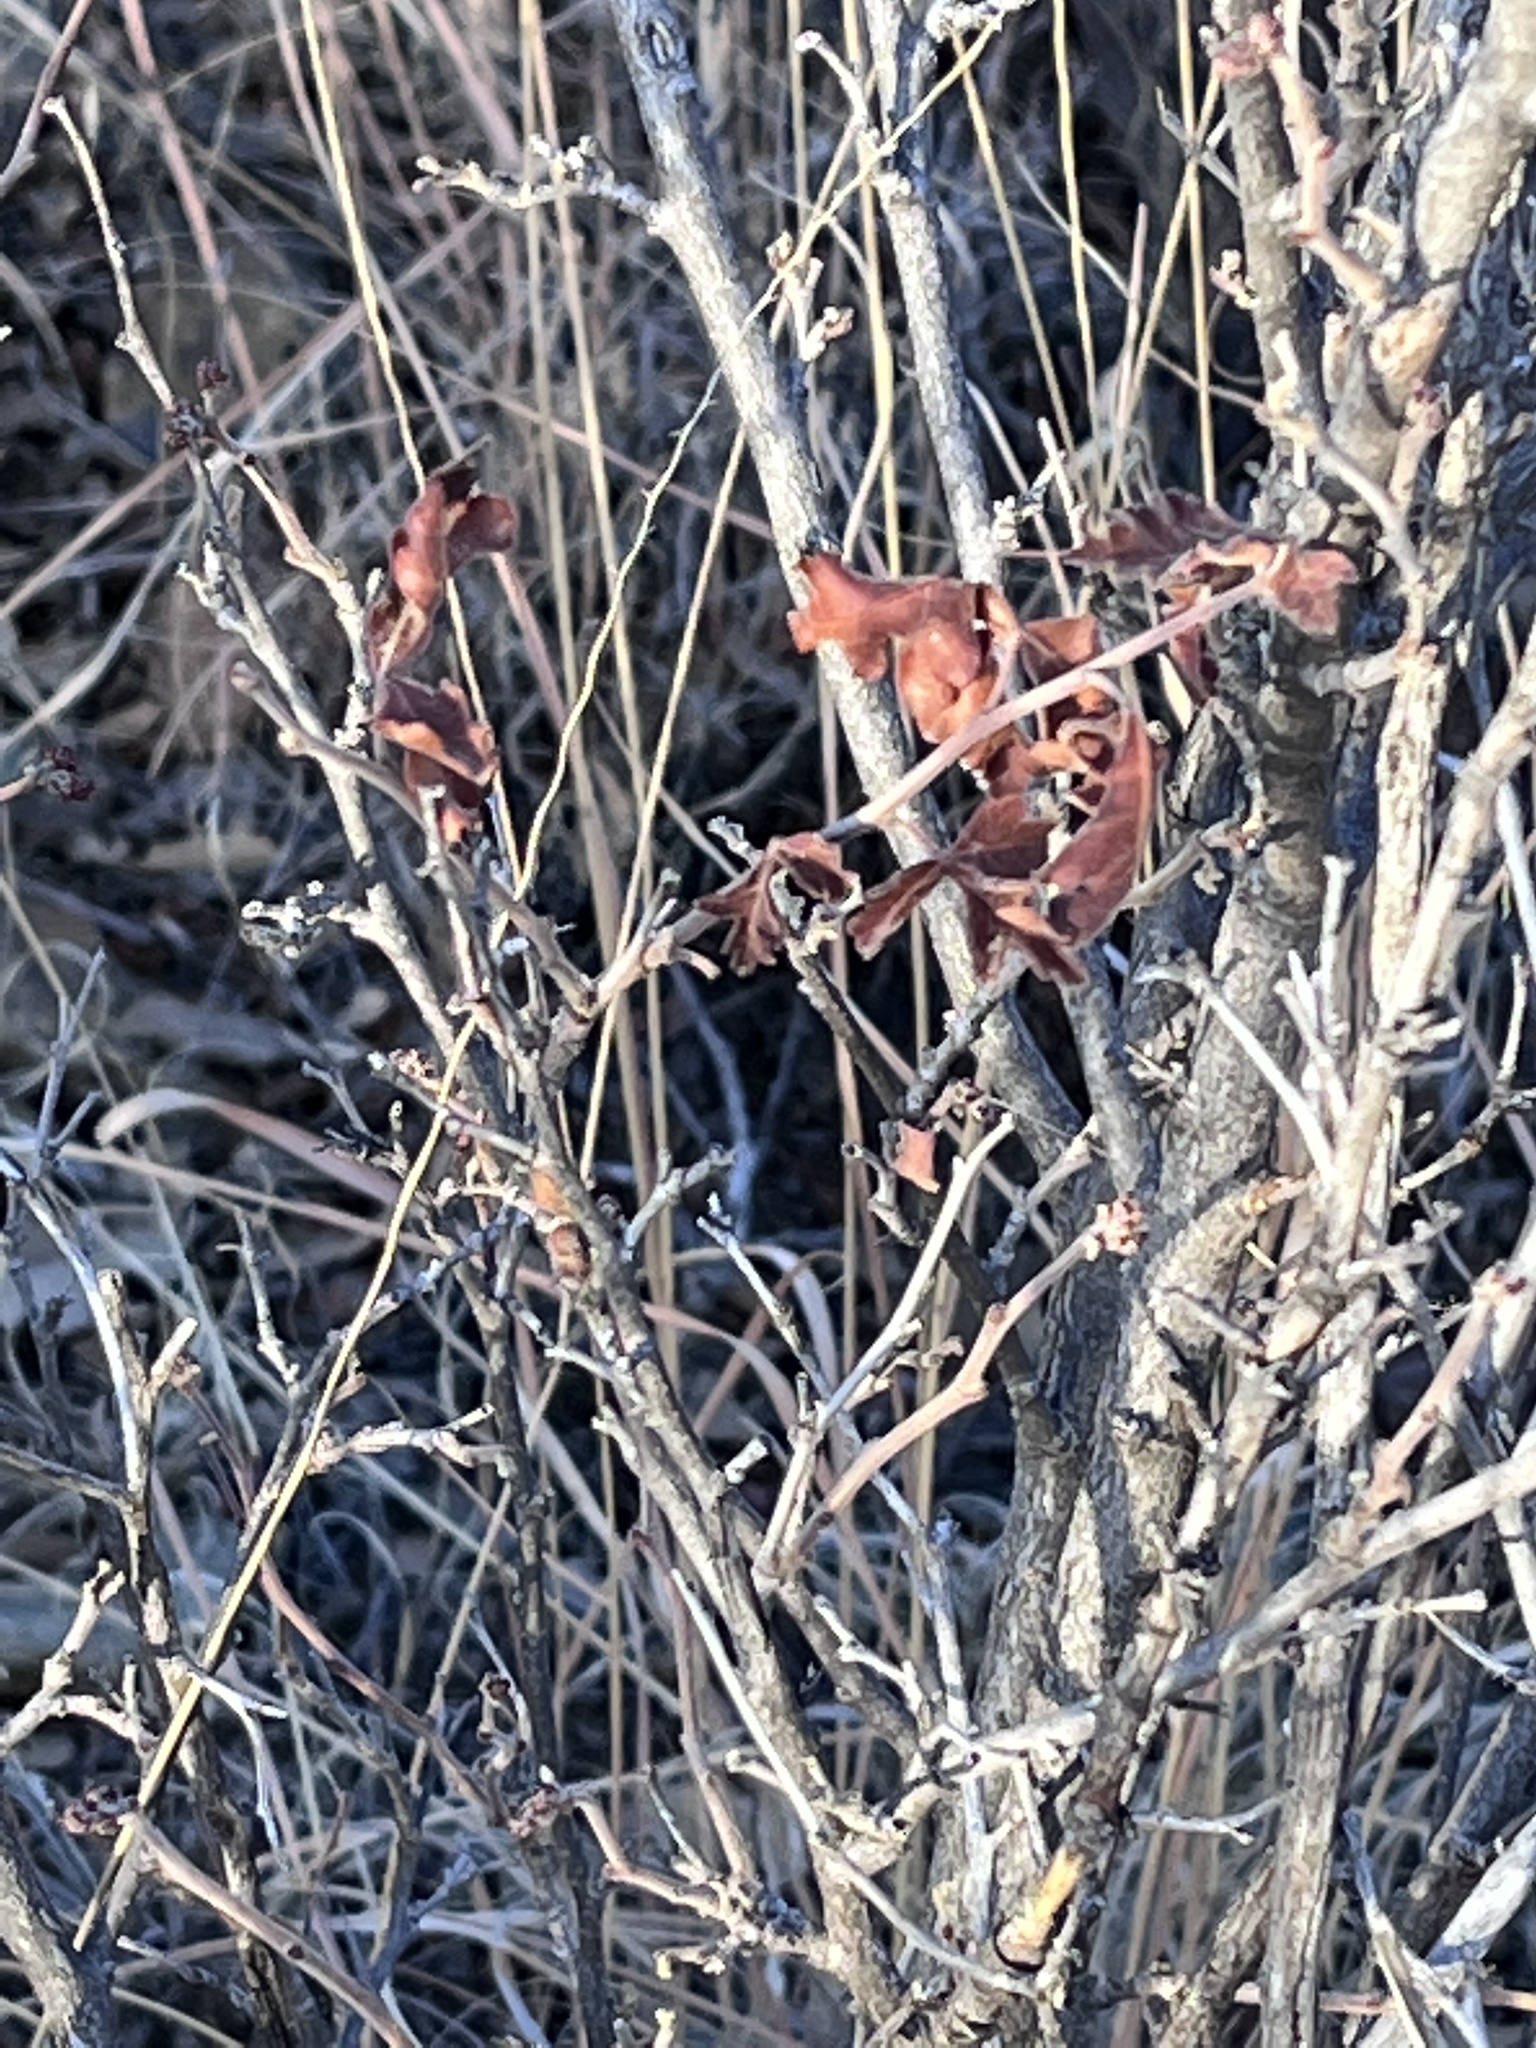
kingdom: Plantae
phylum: Tracheophyta
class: Magnoliopsida
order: Sapindales
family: Anacardiaceae
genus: Rhus
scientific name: Rhus aromatica
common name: Aromatic sumac
